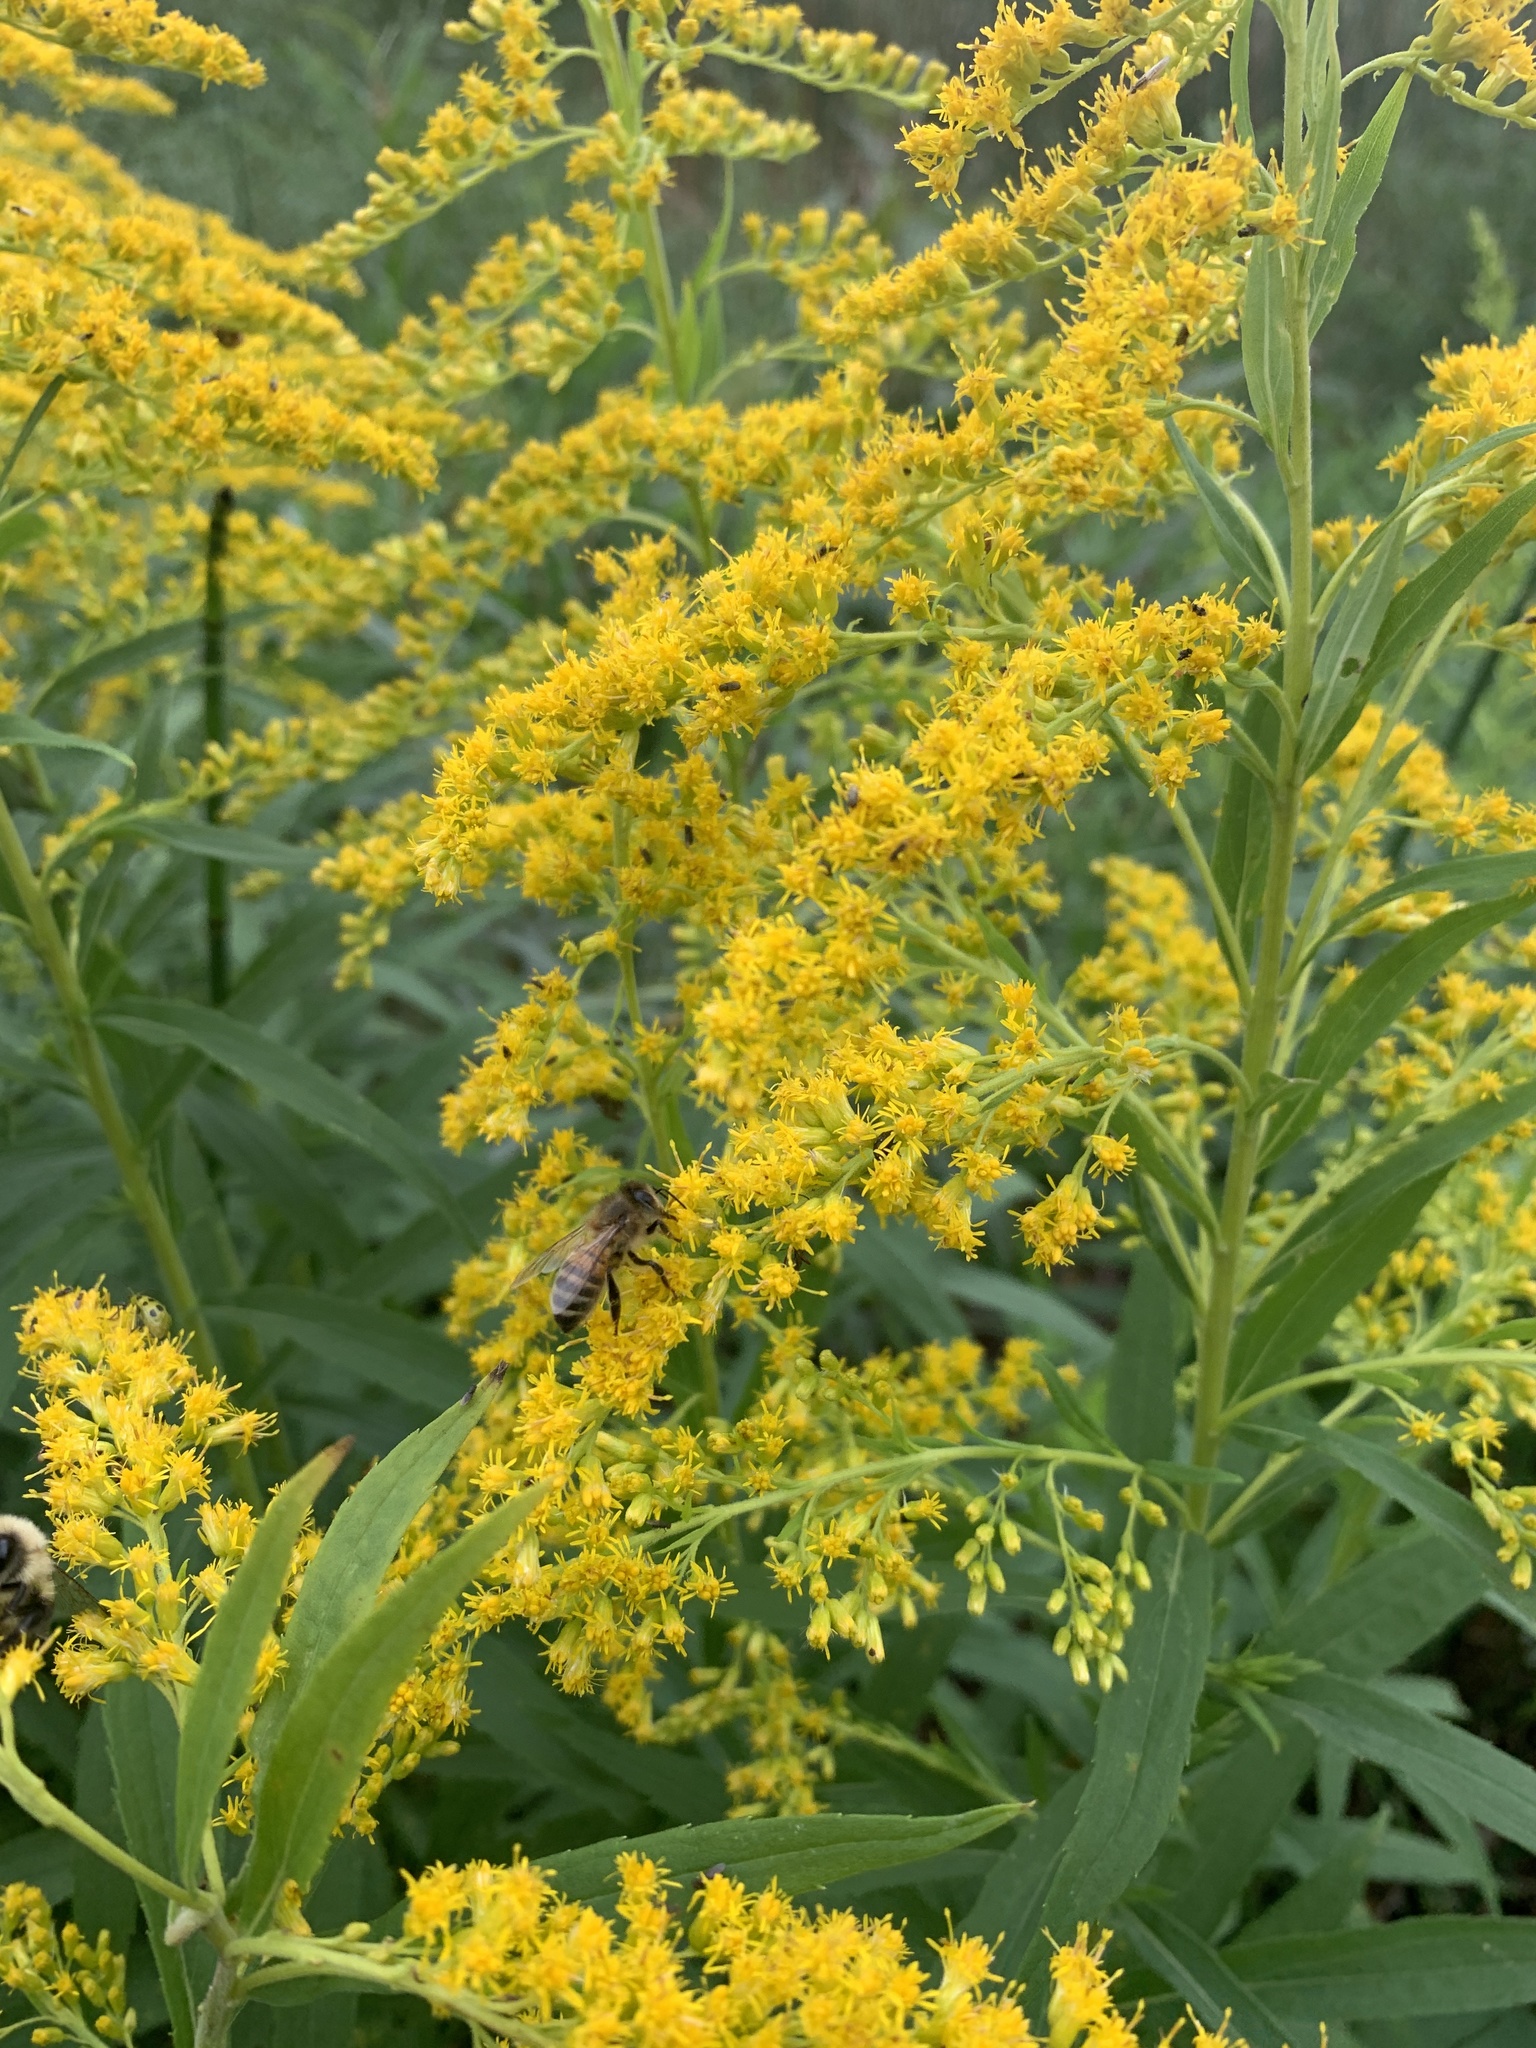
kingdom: Animalia
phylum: Arthropoda
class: Insecta
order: Hymenoptera
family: Apidae
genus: Apis
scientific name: Apis mellifera
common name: Honey bee
